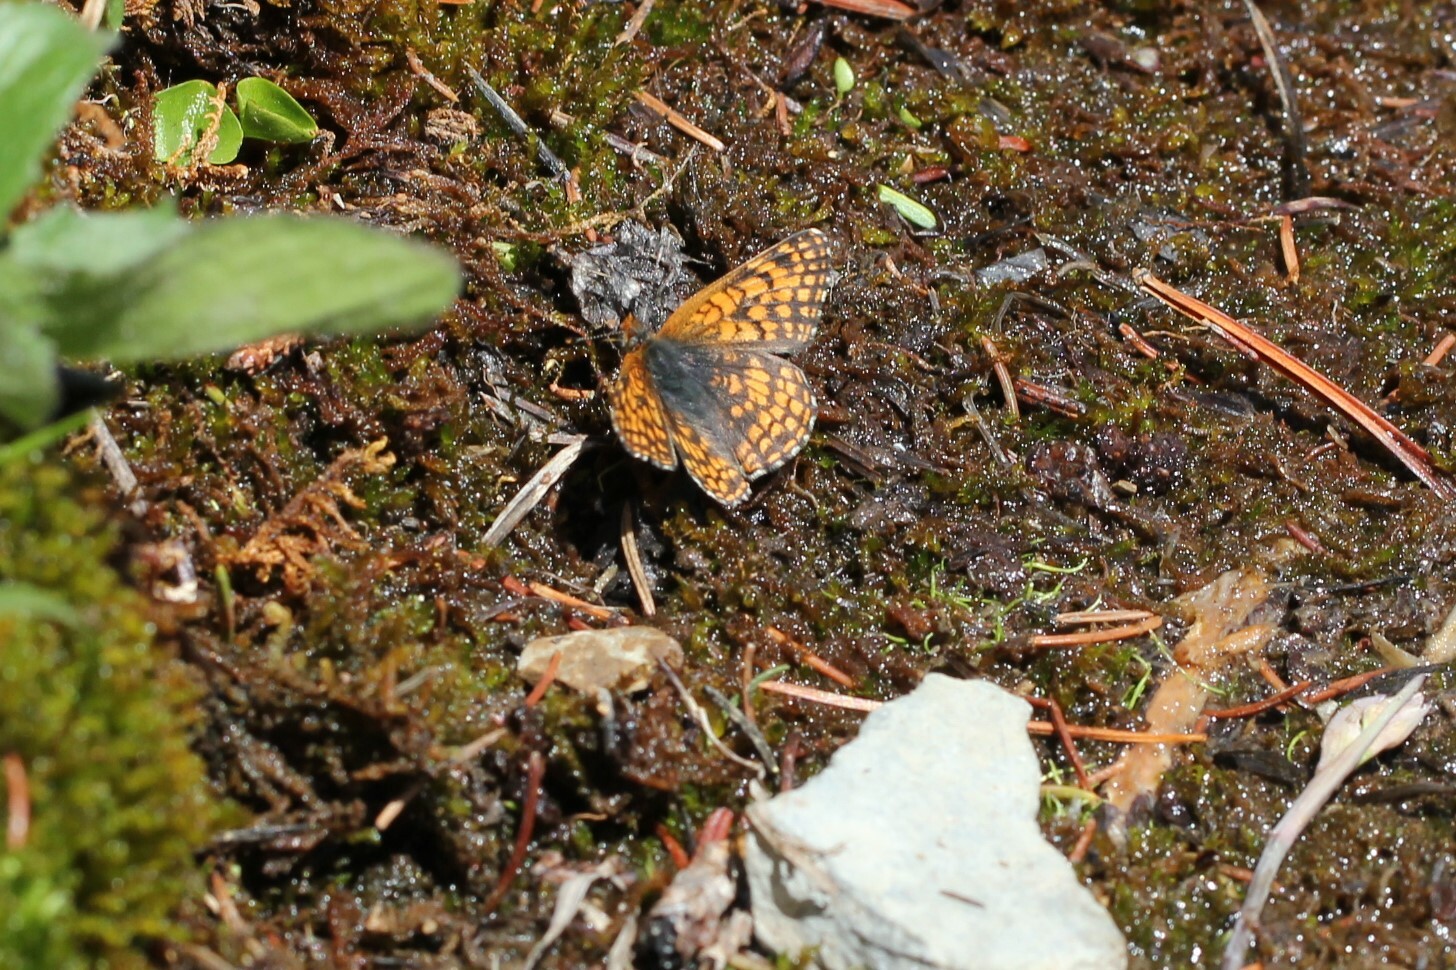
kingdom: Animalia
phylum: Arthropoda
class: Insecta
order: Lepidoptera
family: Nymphalidae
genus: Chlosyne
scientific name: Chlosyne damoetas
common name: Rockslide checkerspot
